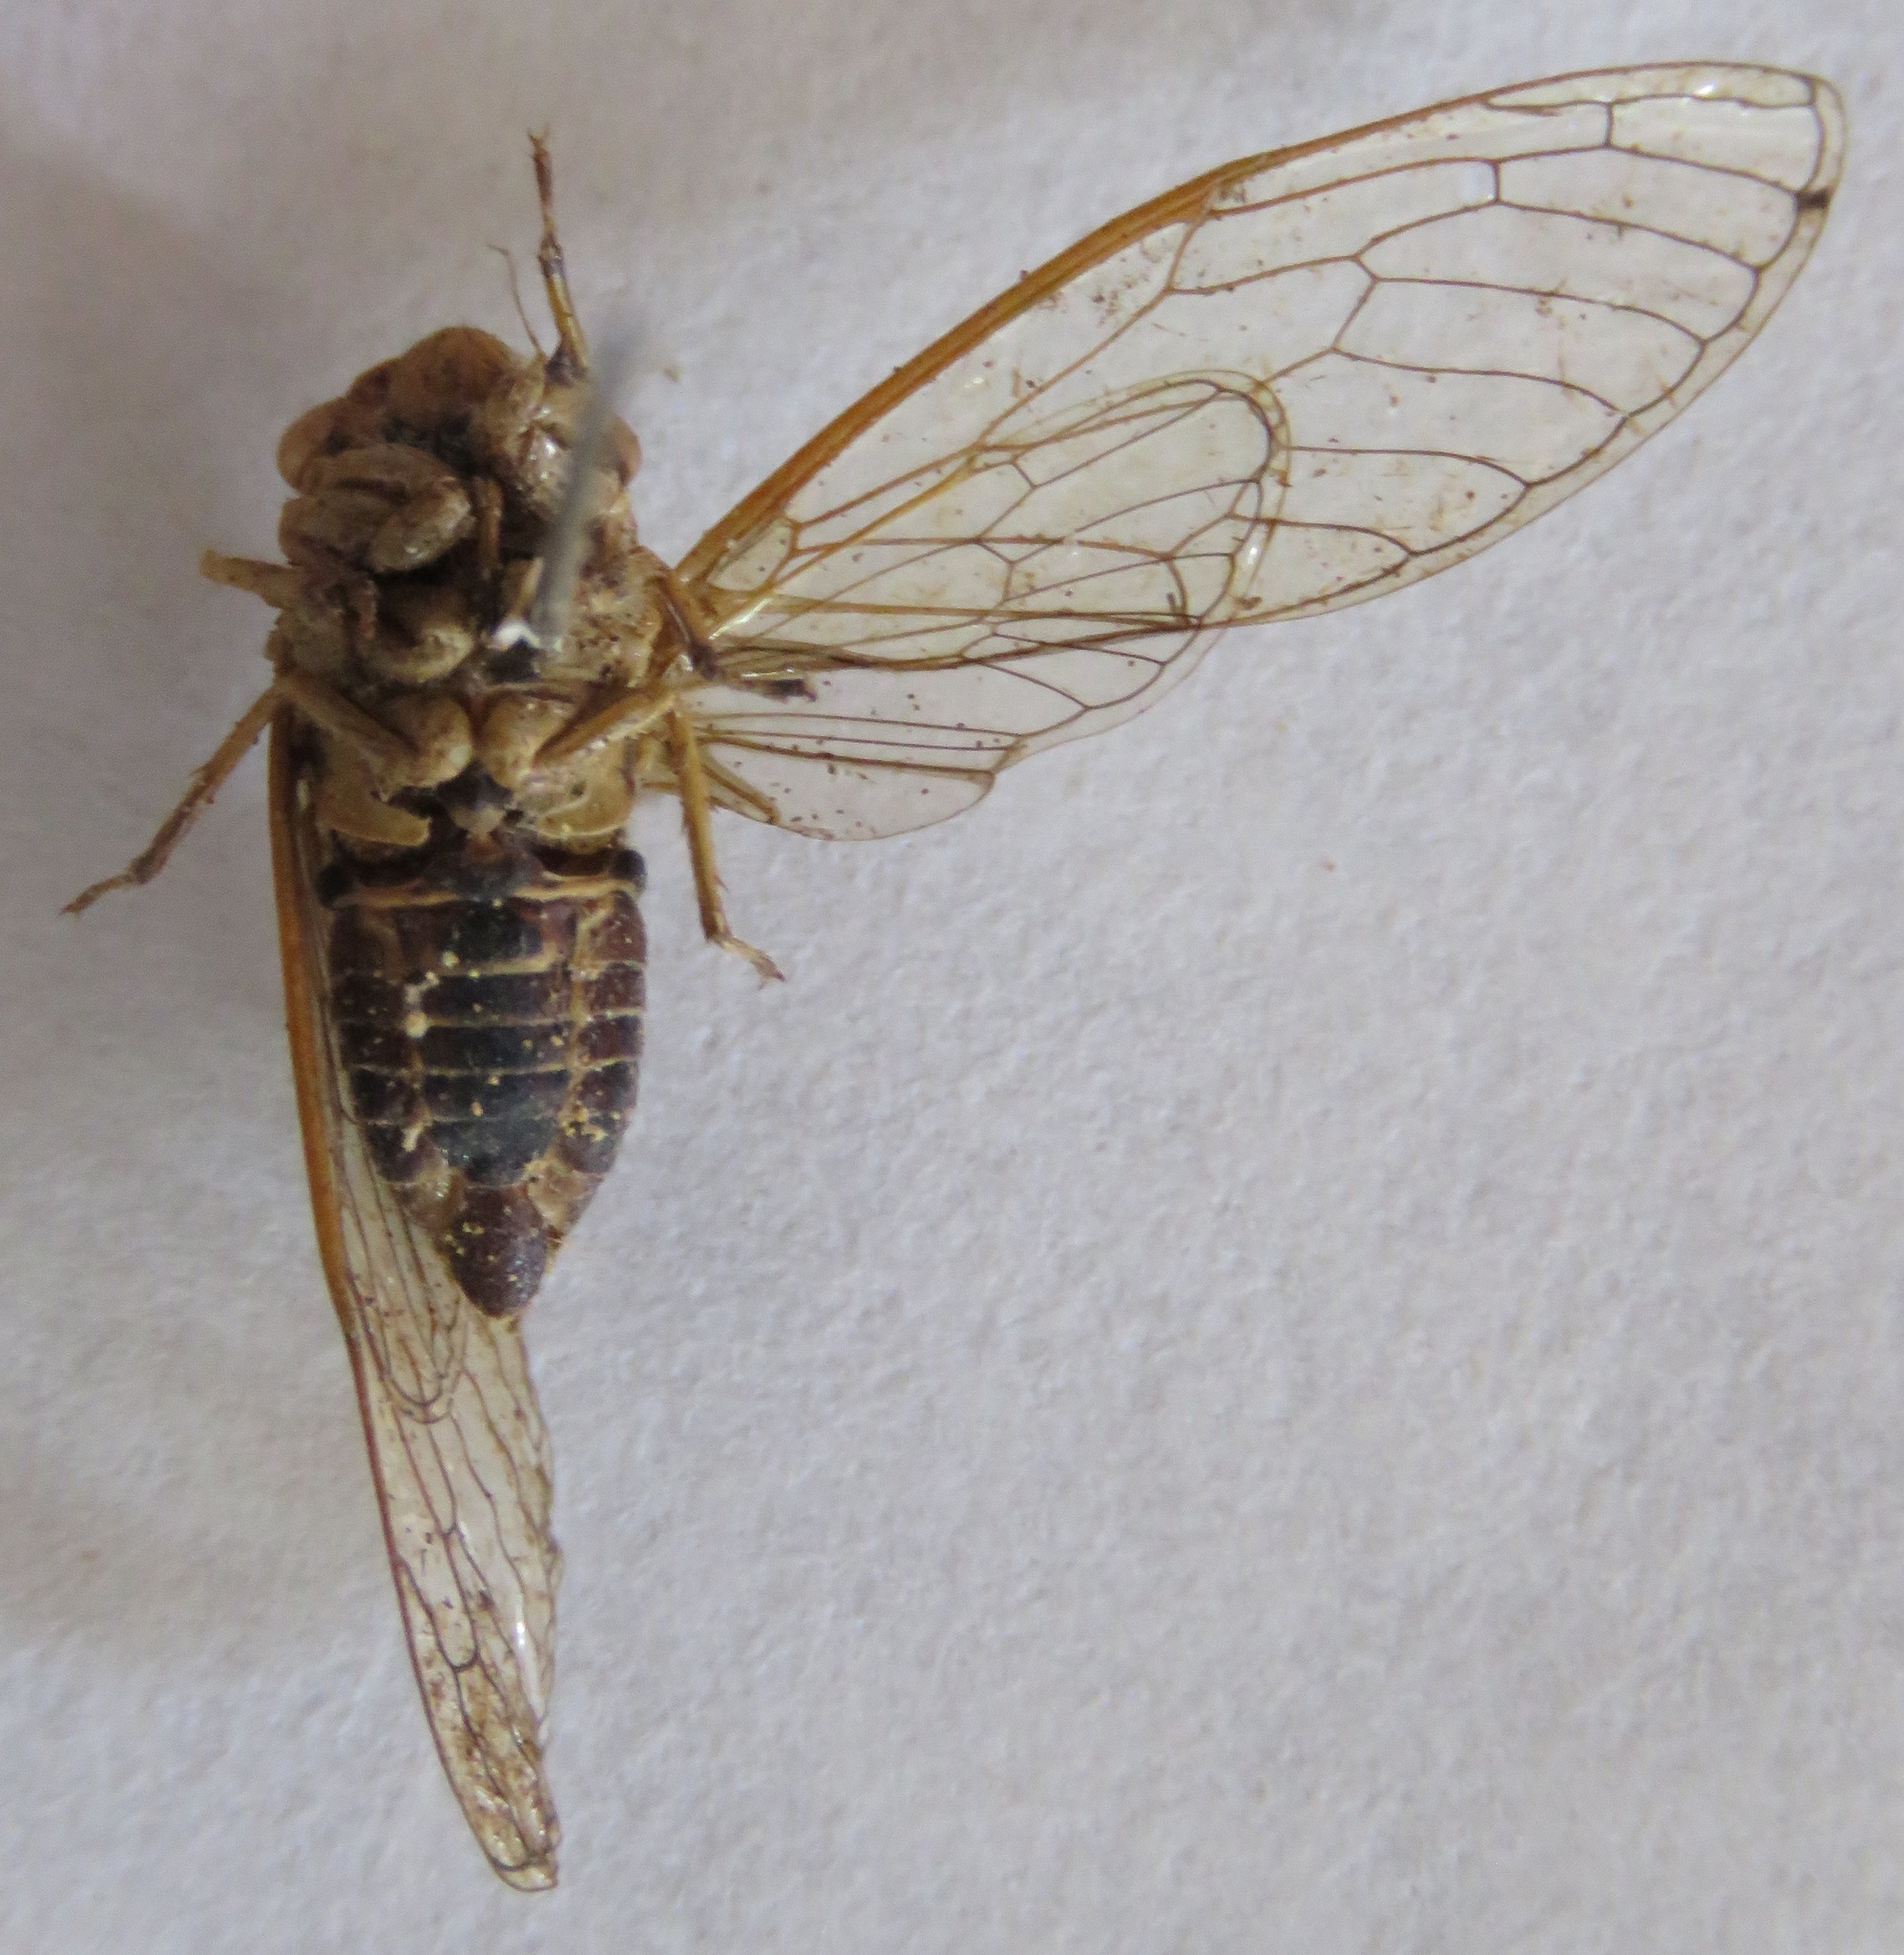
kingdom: Animalia
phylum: Arthropoda
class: Insecta
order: Hemiptera
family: Cicadidae
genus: Herrera
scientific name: Herrera ancilla
